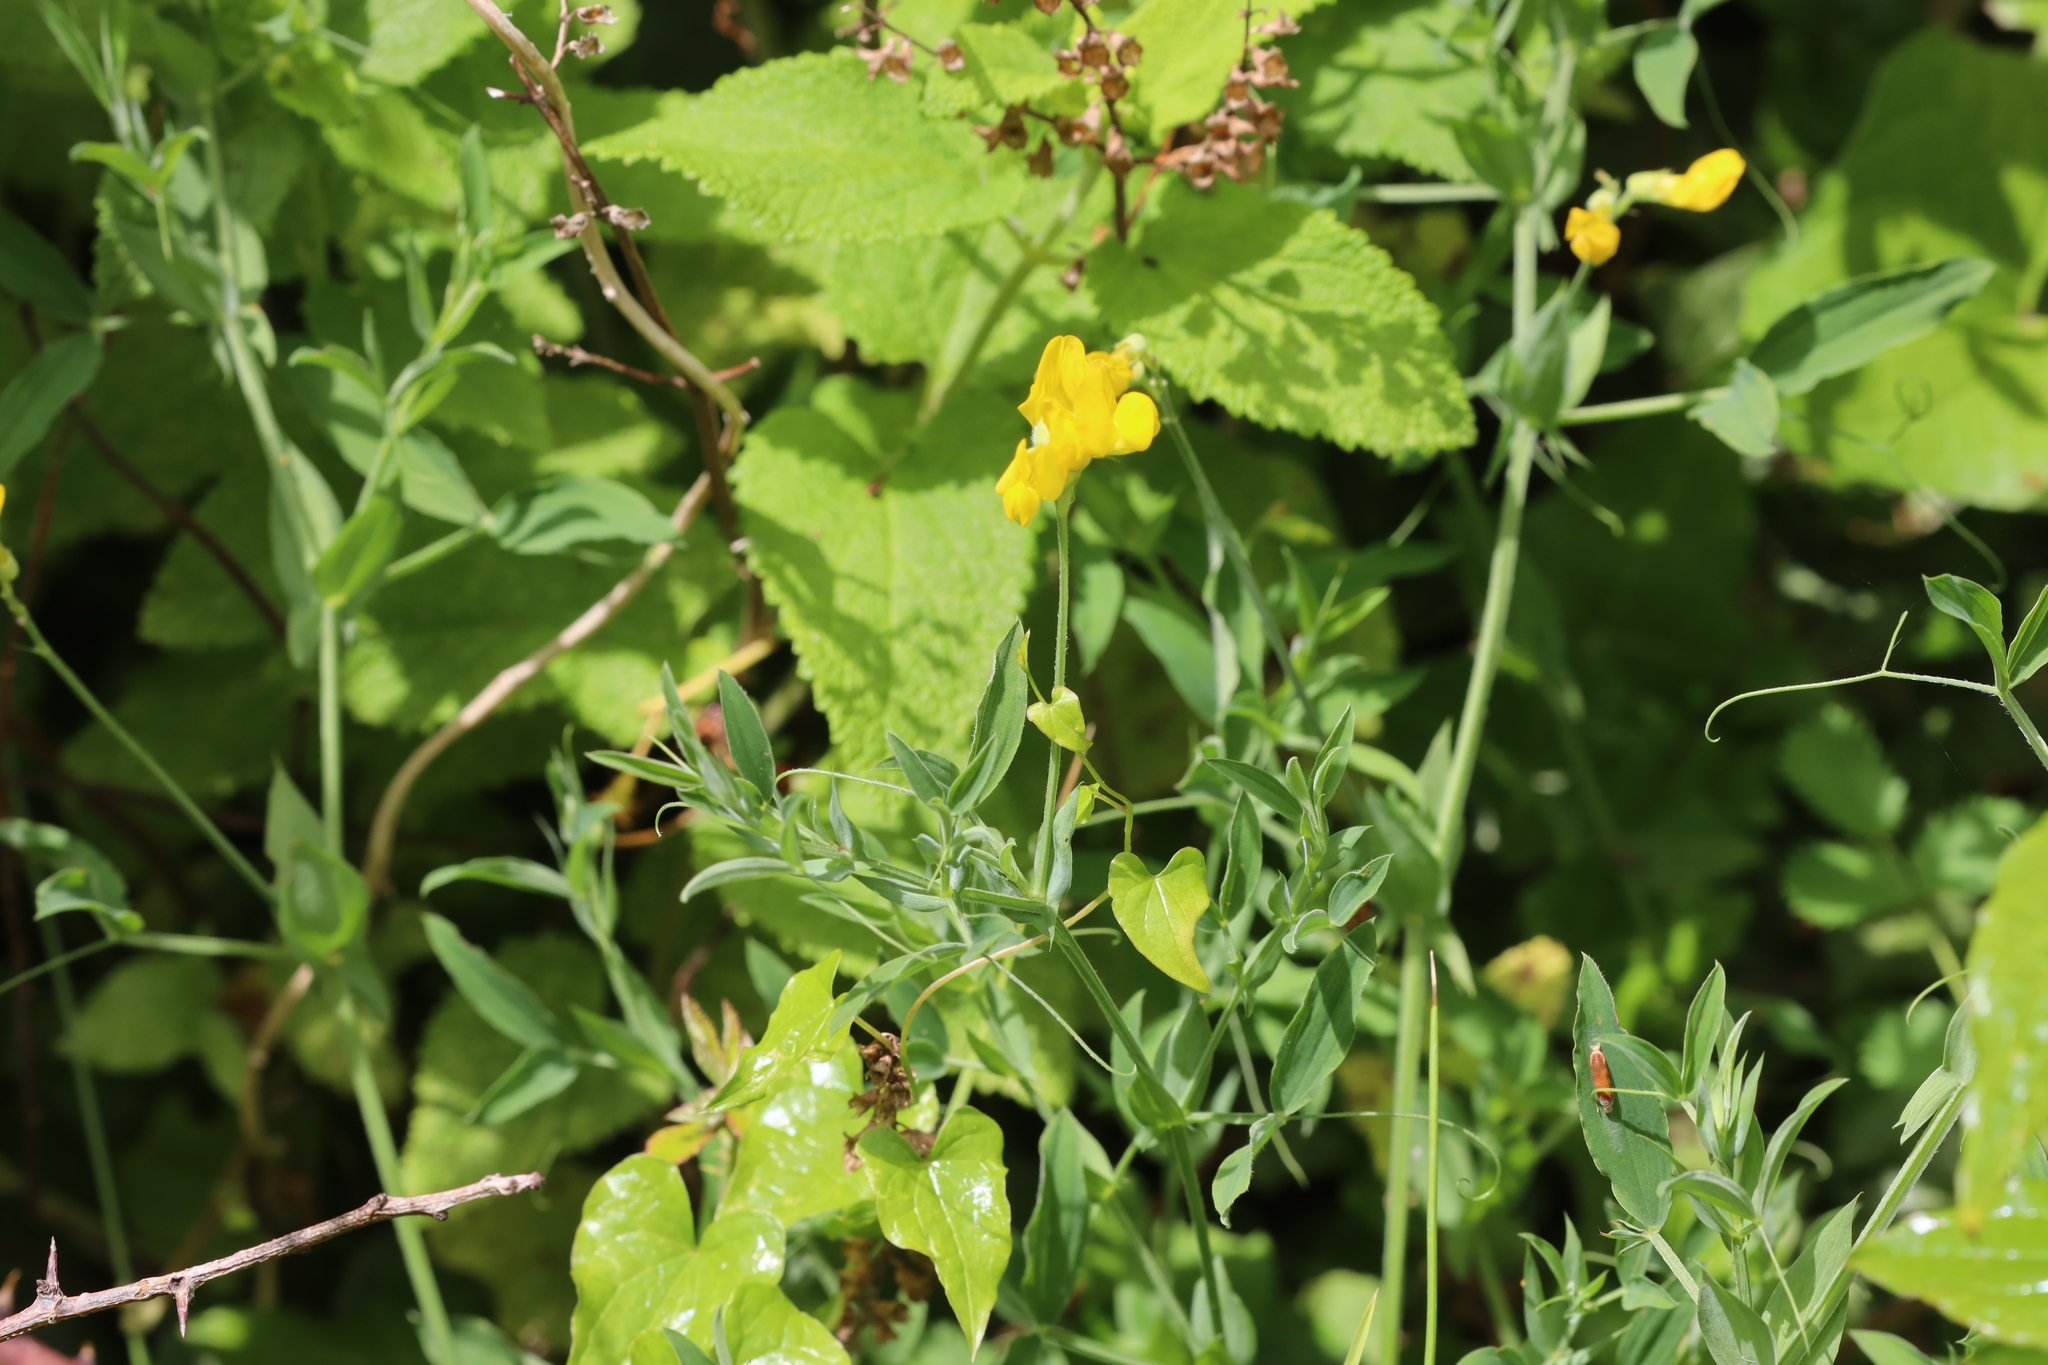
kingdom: Plantae
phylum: Tracheophyta
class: Magnoliopsida
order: Fabales
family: Fabaceae
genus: Lathyrus
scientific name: Lathyrus pratensis
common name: Meadow vetchling
